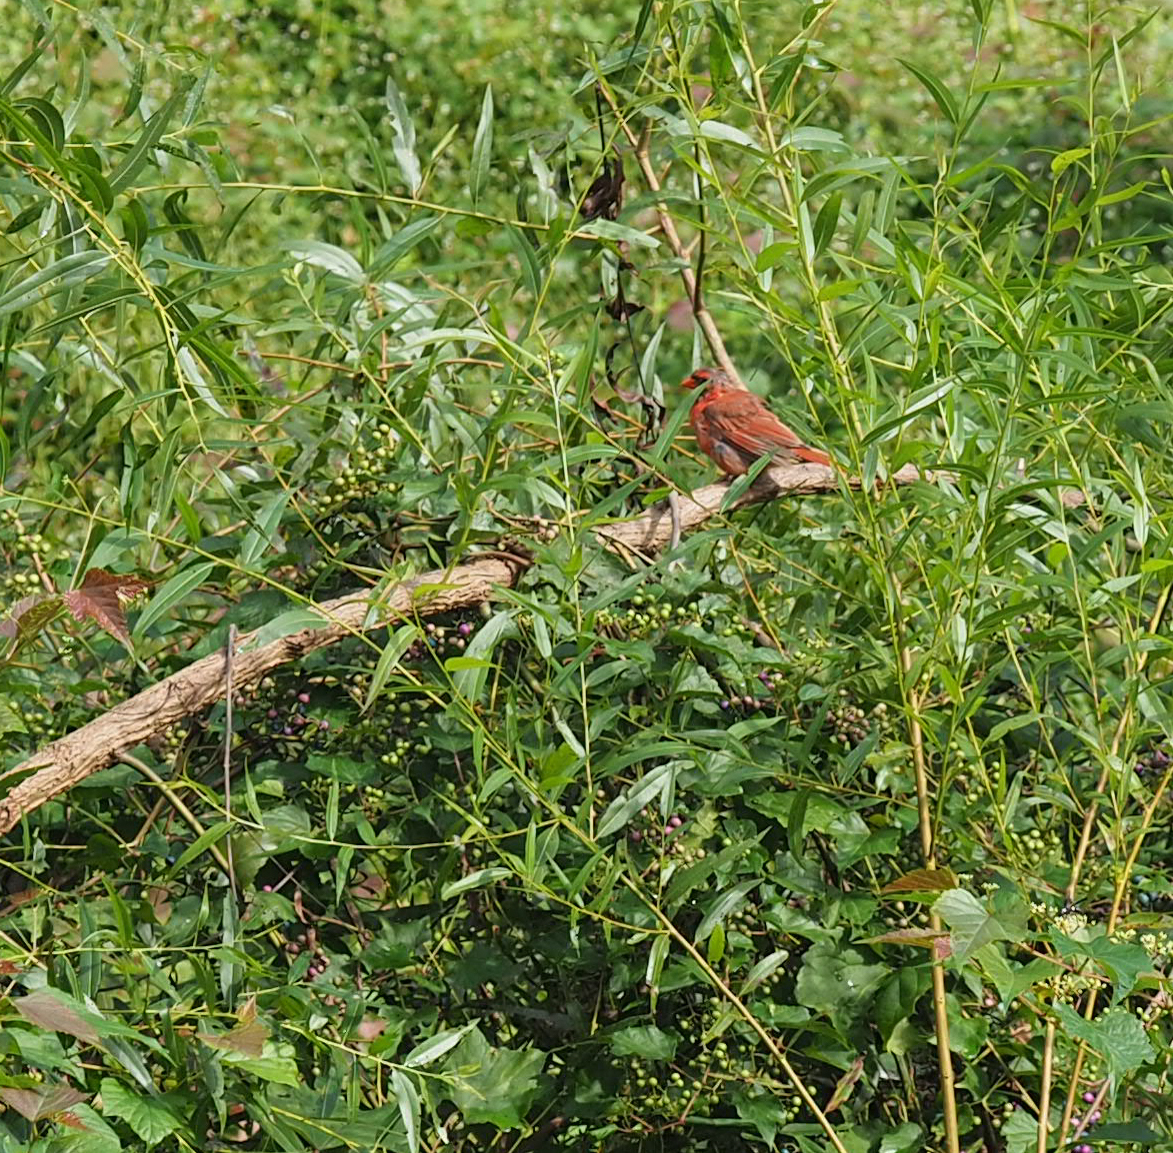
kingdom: Animalia
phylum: Chordata
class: Aves
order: Passeriformes
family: Cardinalidae
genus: Cardinalis
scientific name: Cardinalis cardinalis
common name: Northern cardinal
